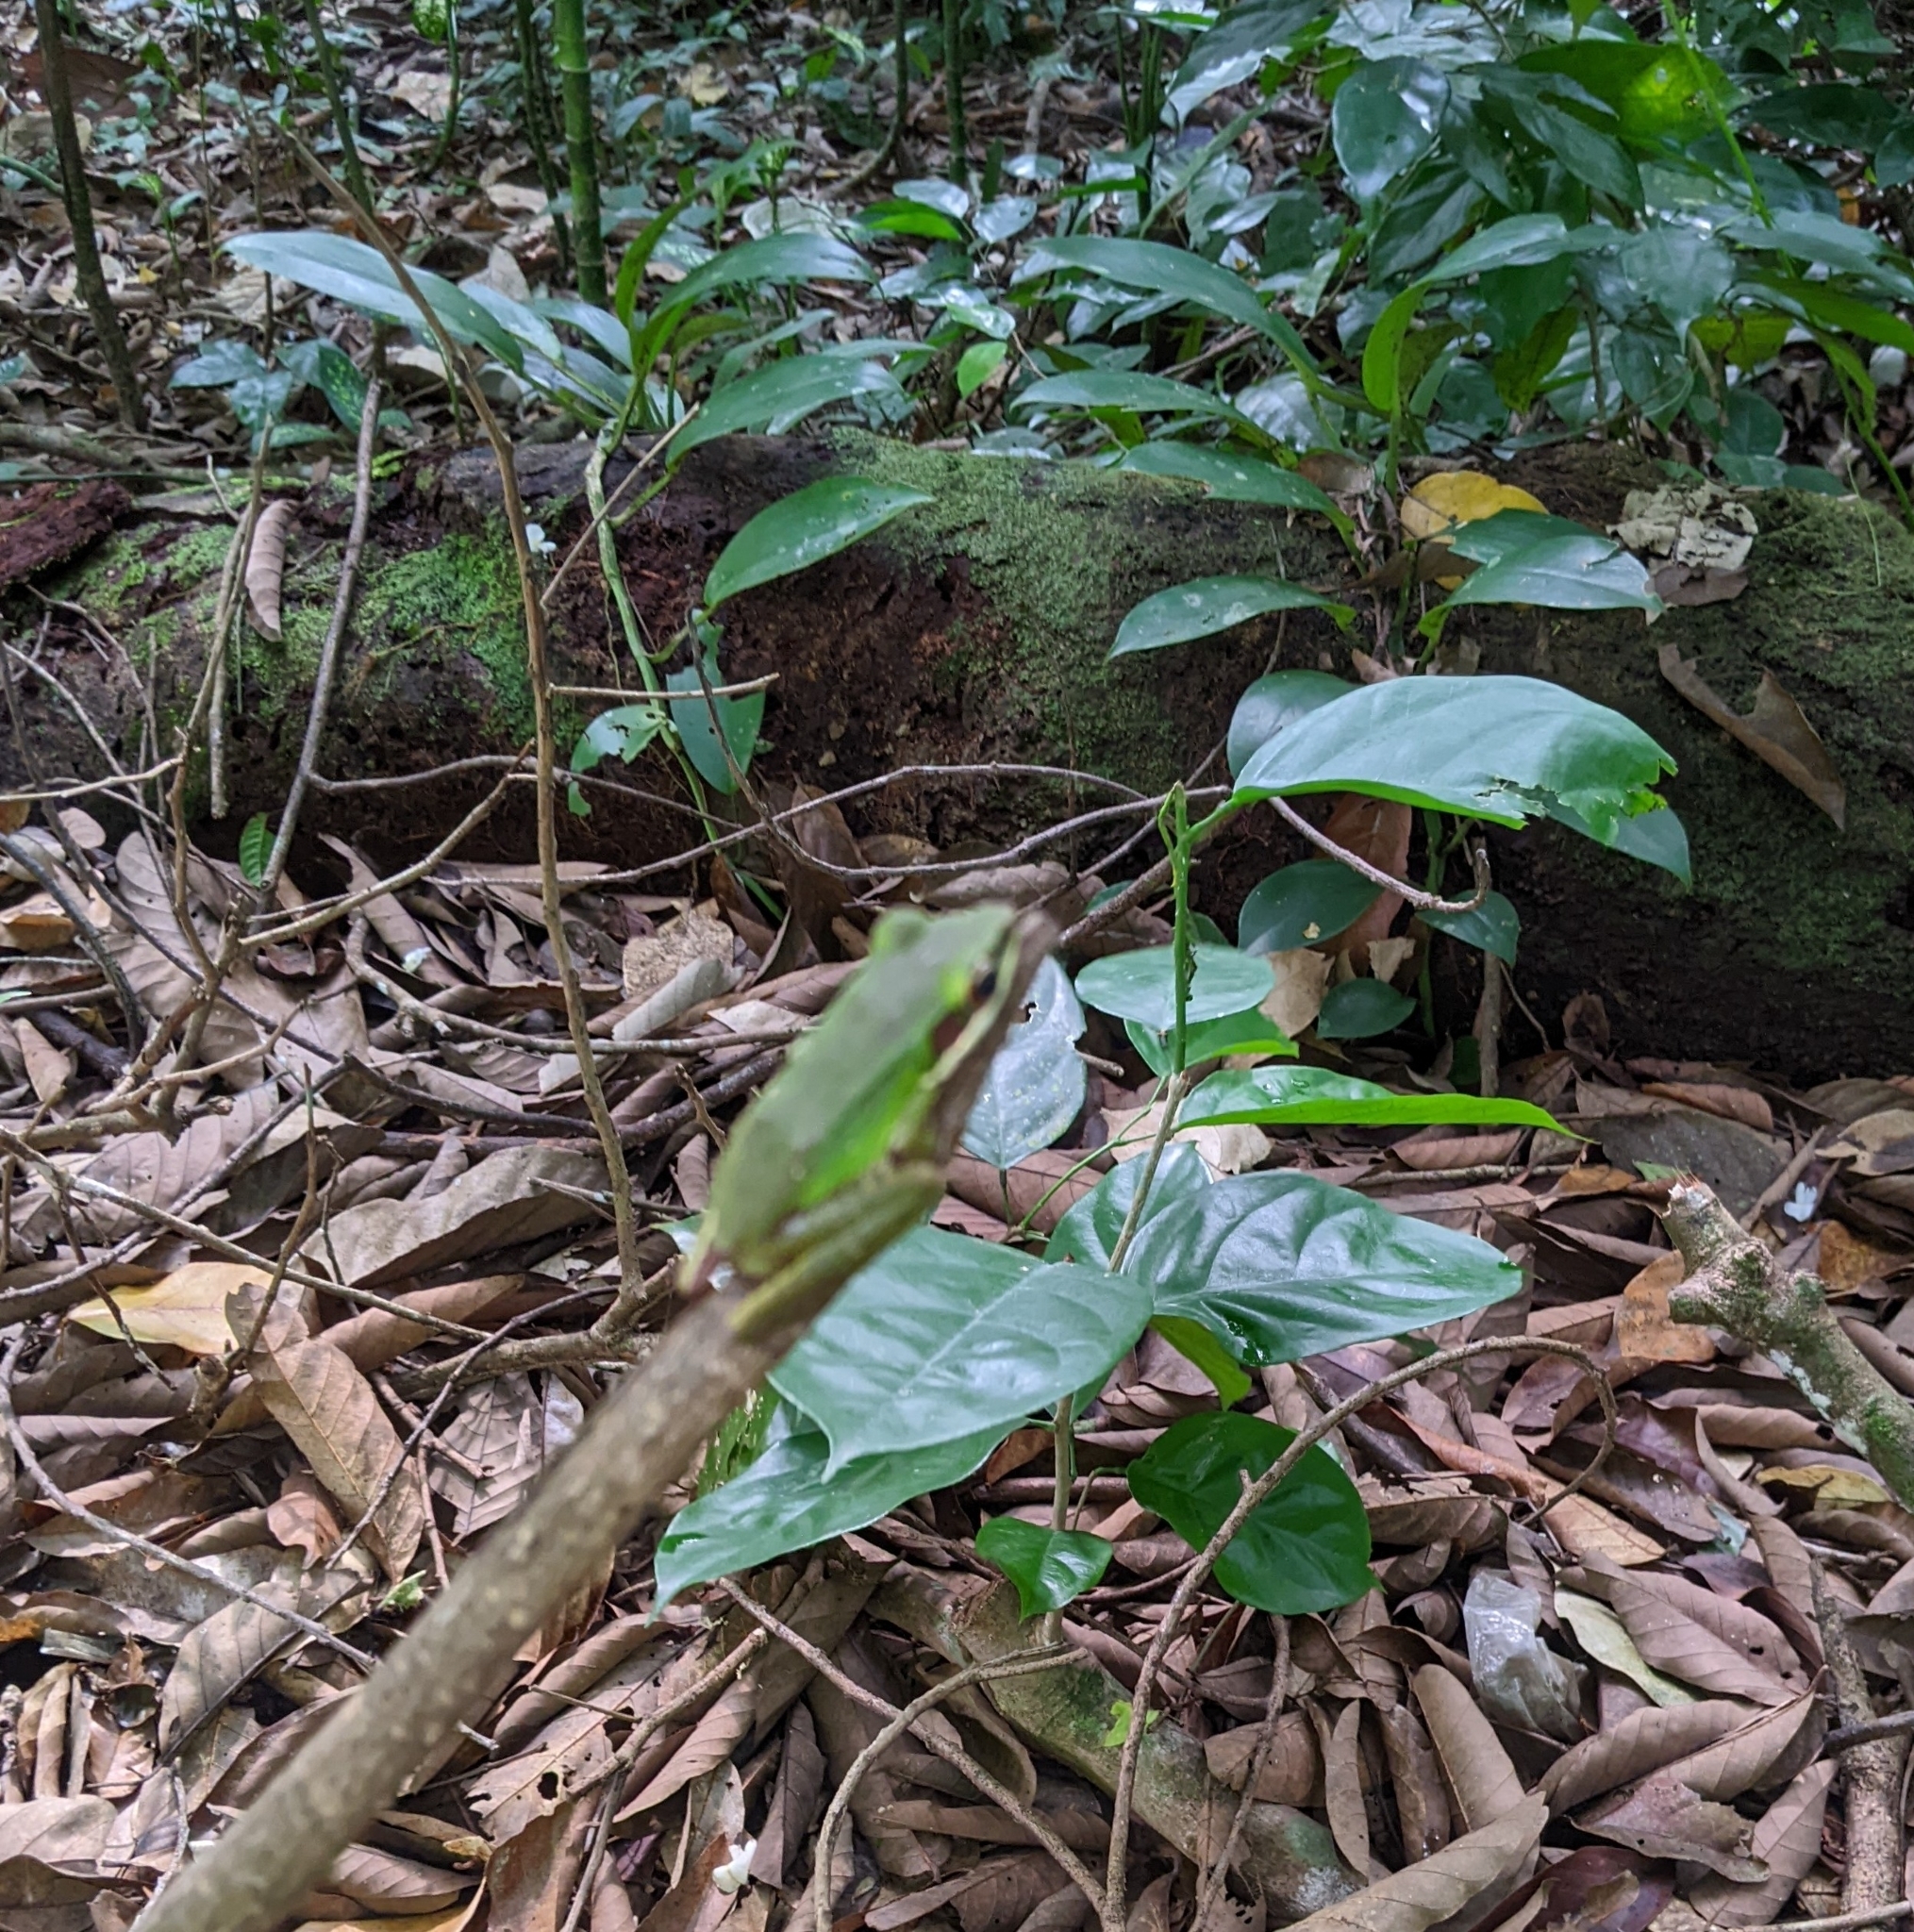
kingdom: Animalia
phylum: Chordata
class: Amphibia
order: Anura
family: Ranidae
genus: Chalcorana
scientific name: Chalcorana labialis
